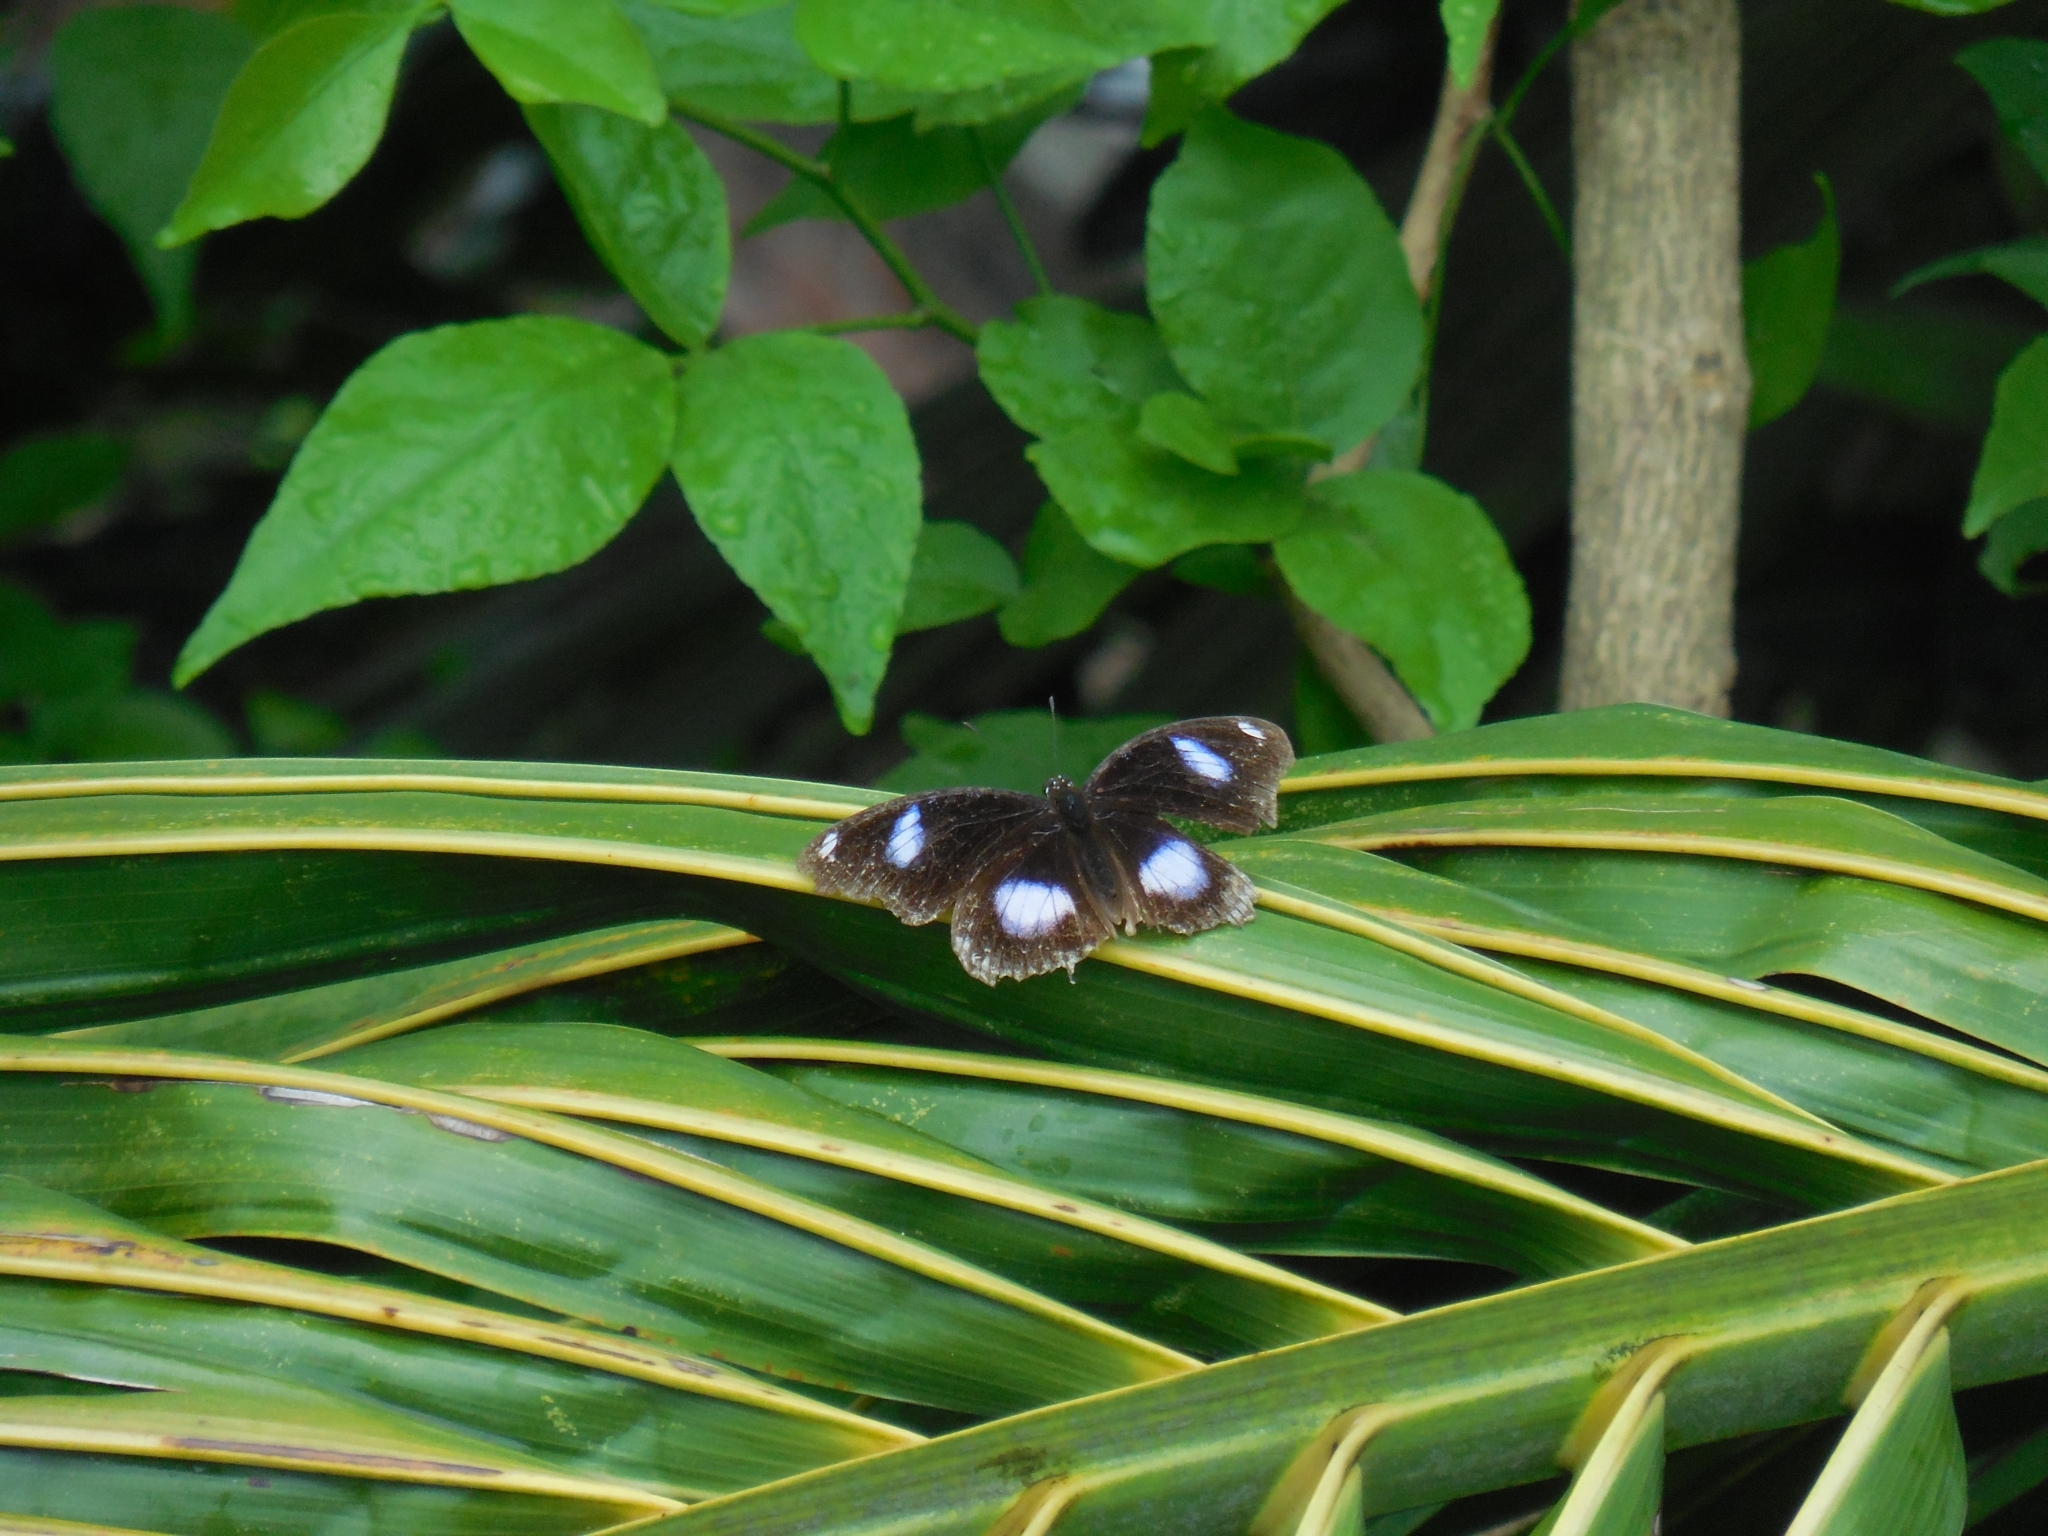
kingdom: Animalia
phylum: Arthropoda
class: Insecta
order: Lepidoptera
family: Nymphalidae
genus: Hypolimnas
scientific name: Hypolimnas bolina
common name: Great eggfly
